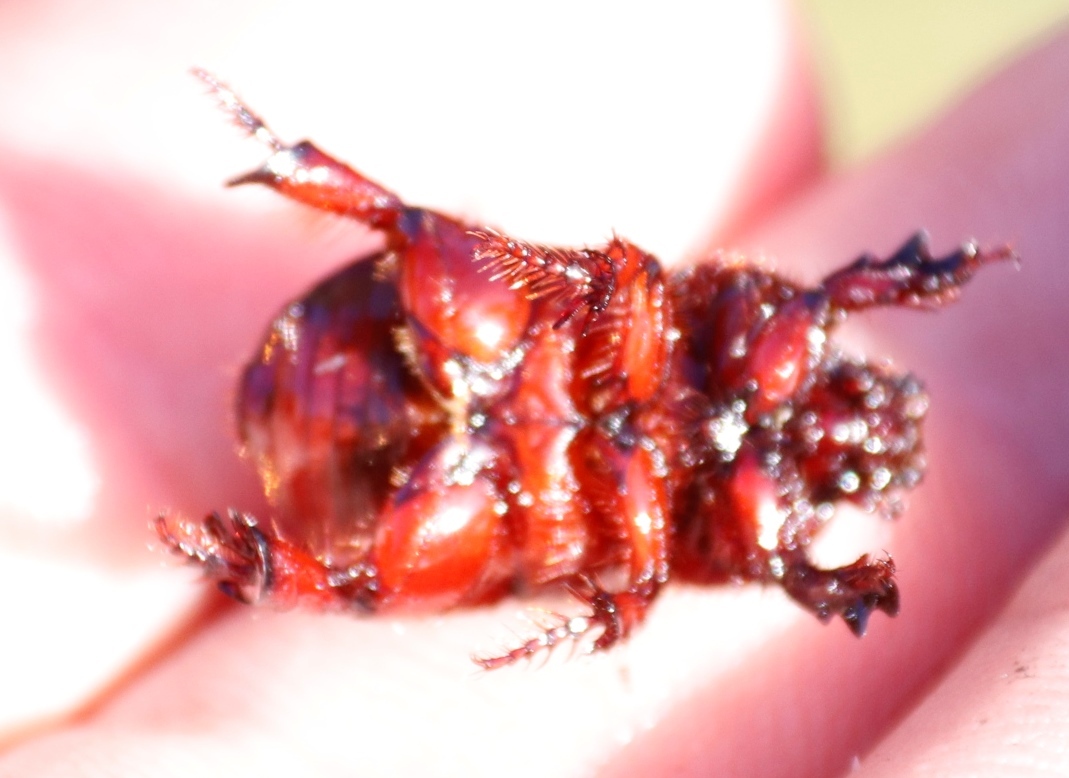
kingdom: Animalia
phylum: Arthropoda
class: Insecta
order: Coleoptera
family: Scarabaeidae
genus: Temnorhynchus
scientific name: Temnorhynchus retusus
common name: Plate-faced beetle
